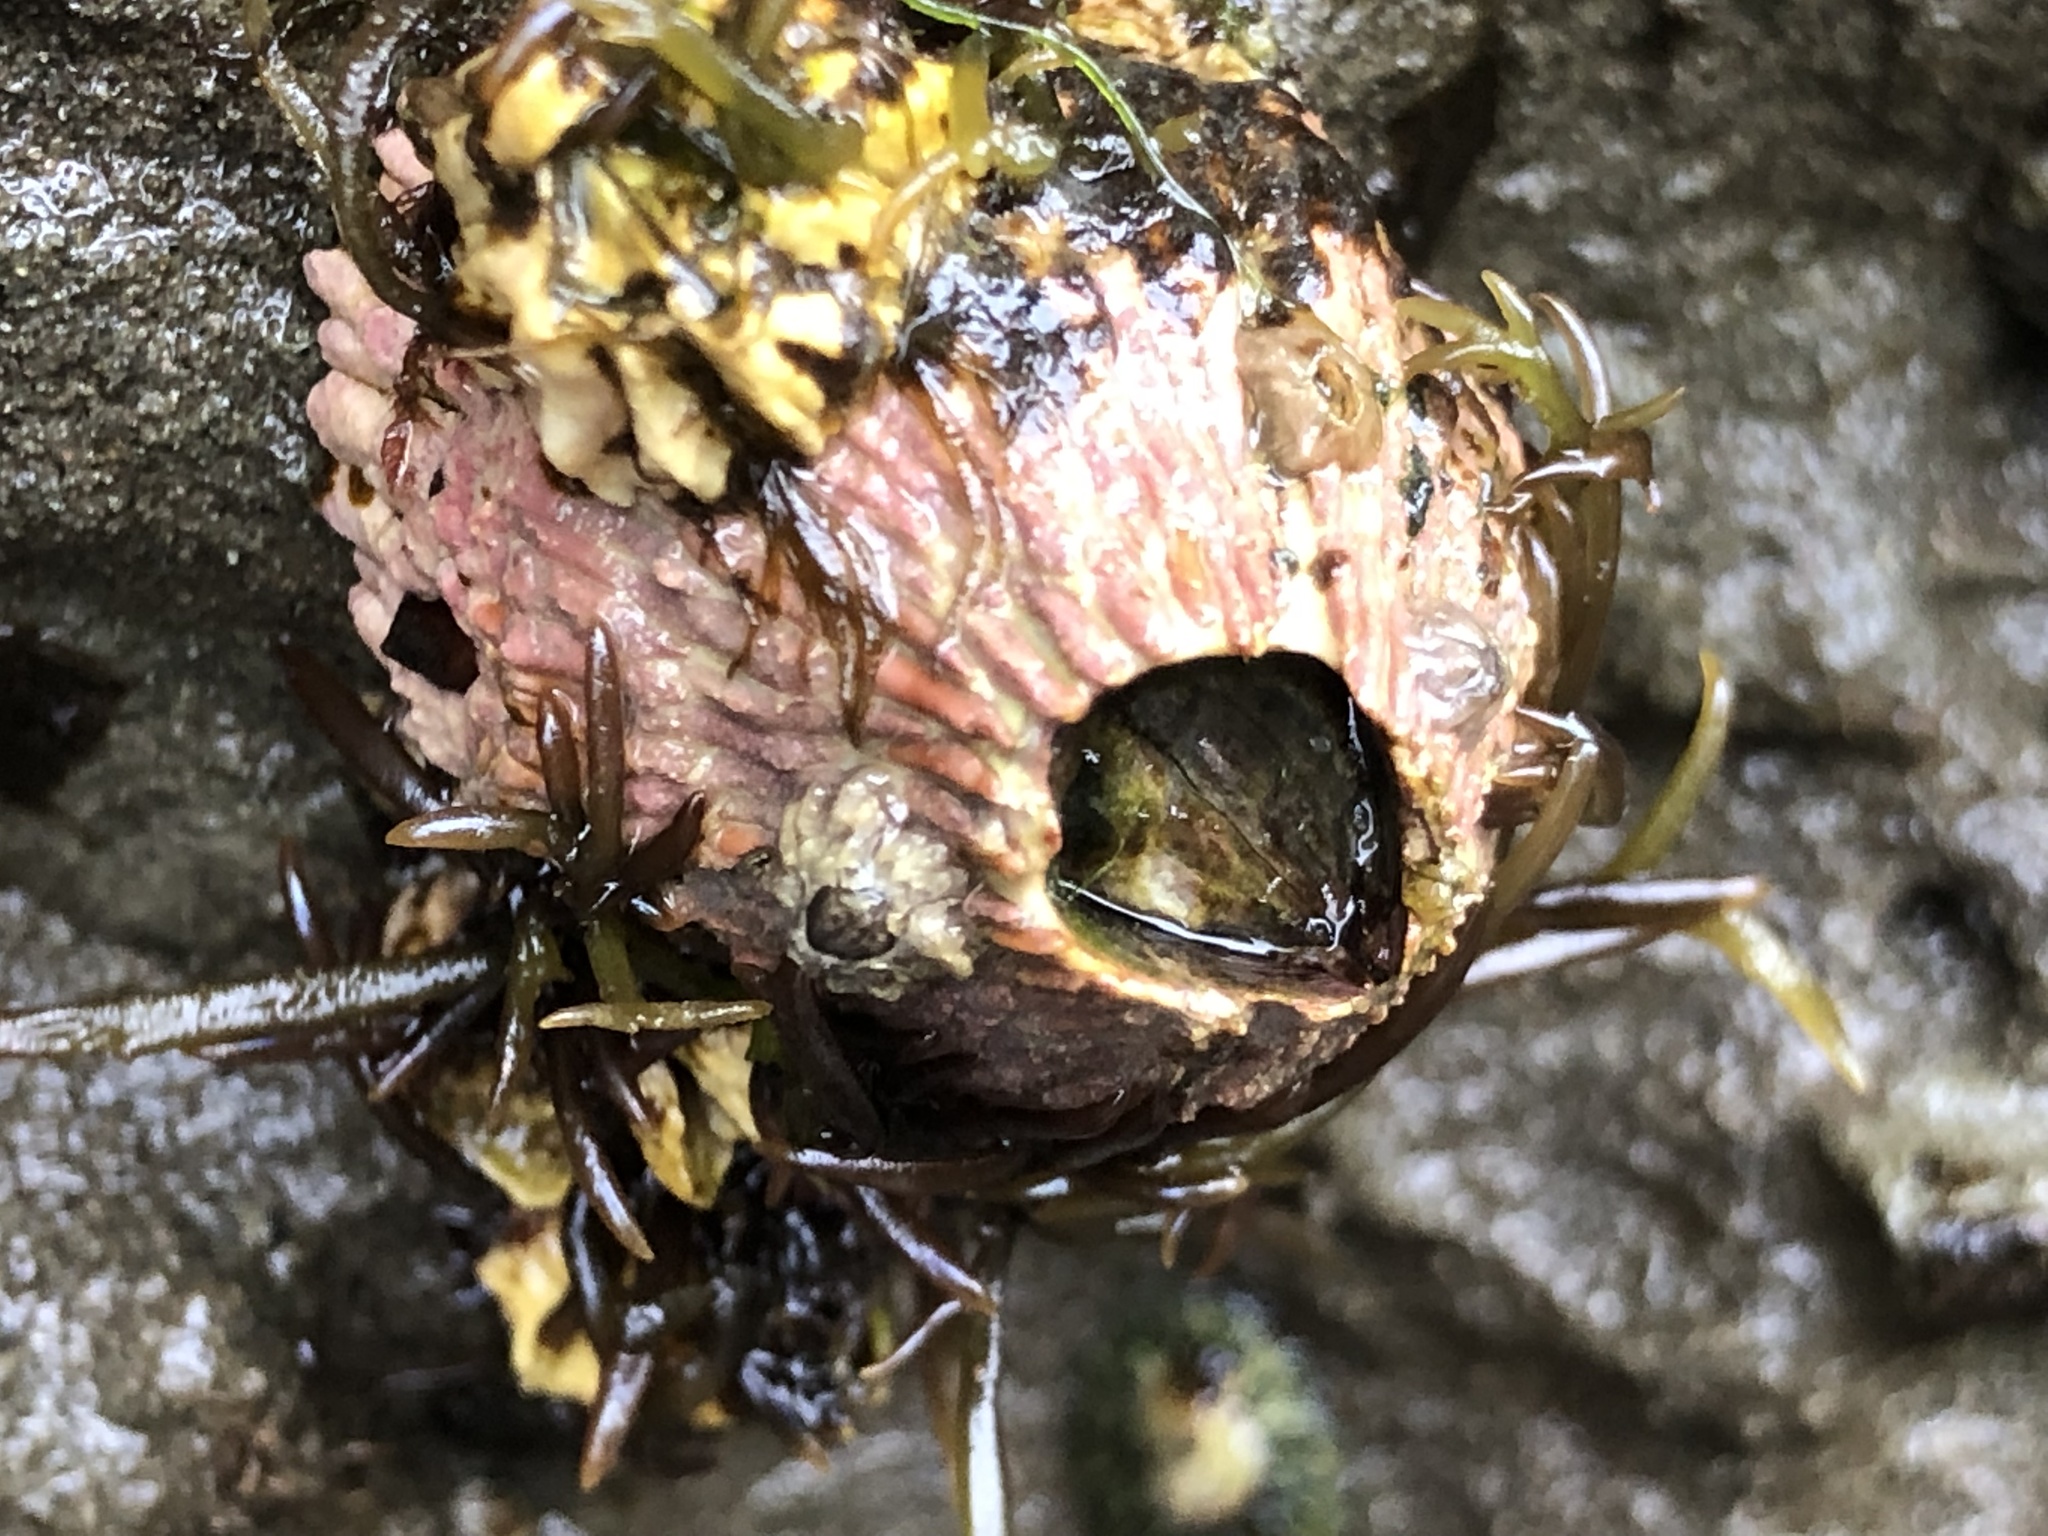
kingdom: Animalia
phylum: Arthropoda
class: Maxillopoda
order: Sessilia
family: Tetraclitidae
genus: Tetraclita
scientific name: Tetraclita rubescens
